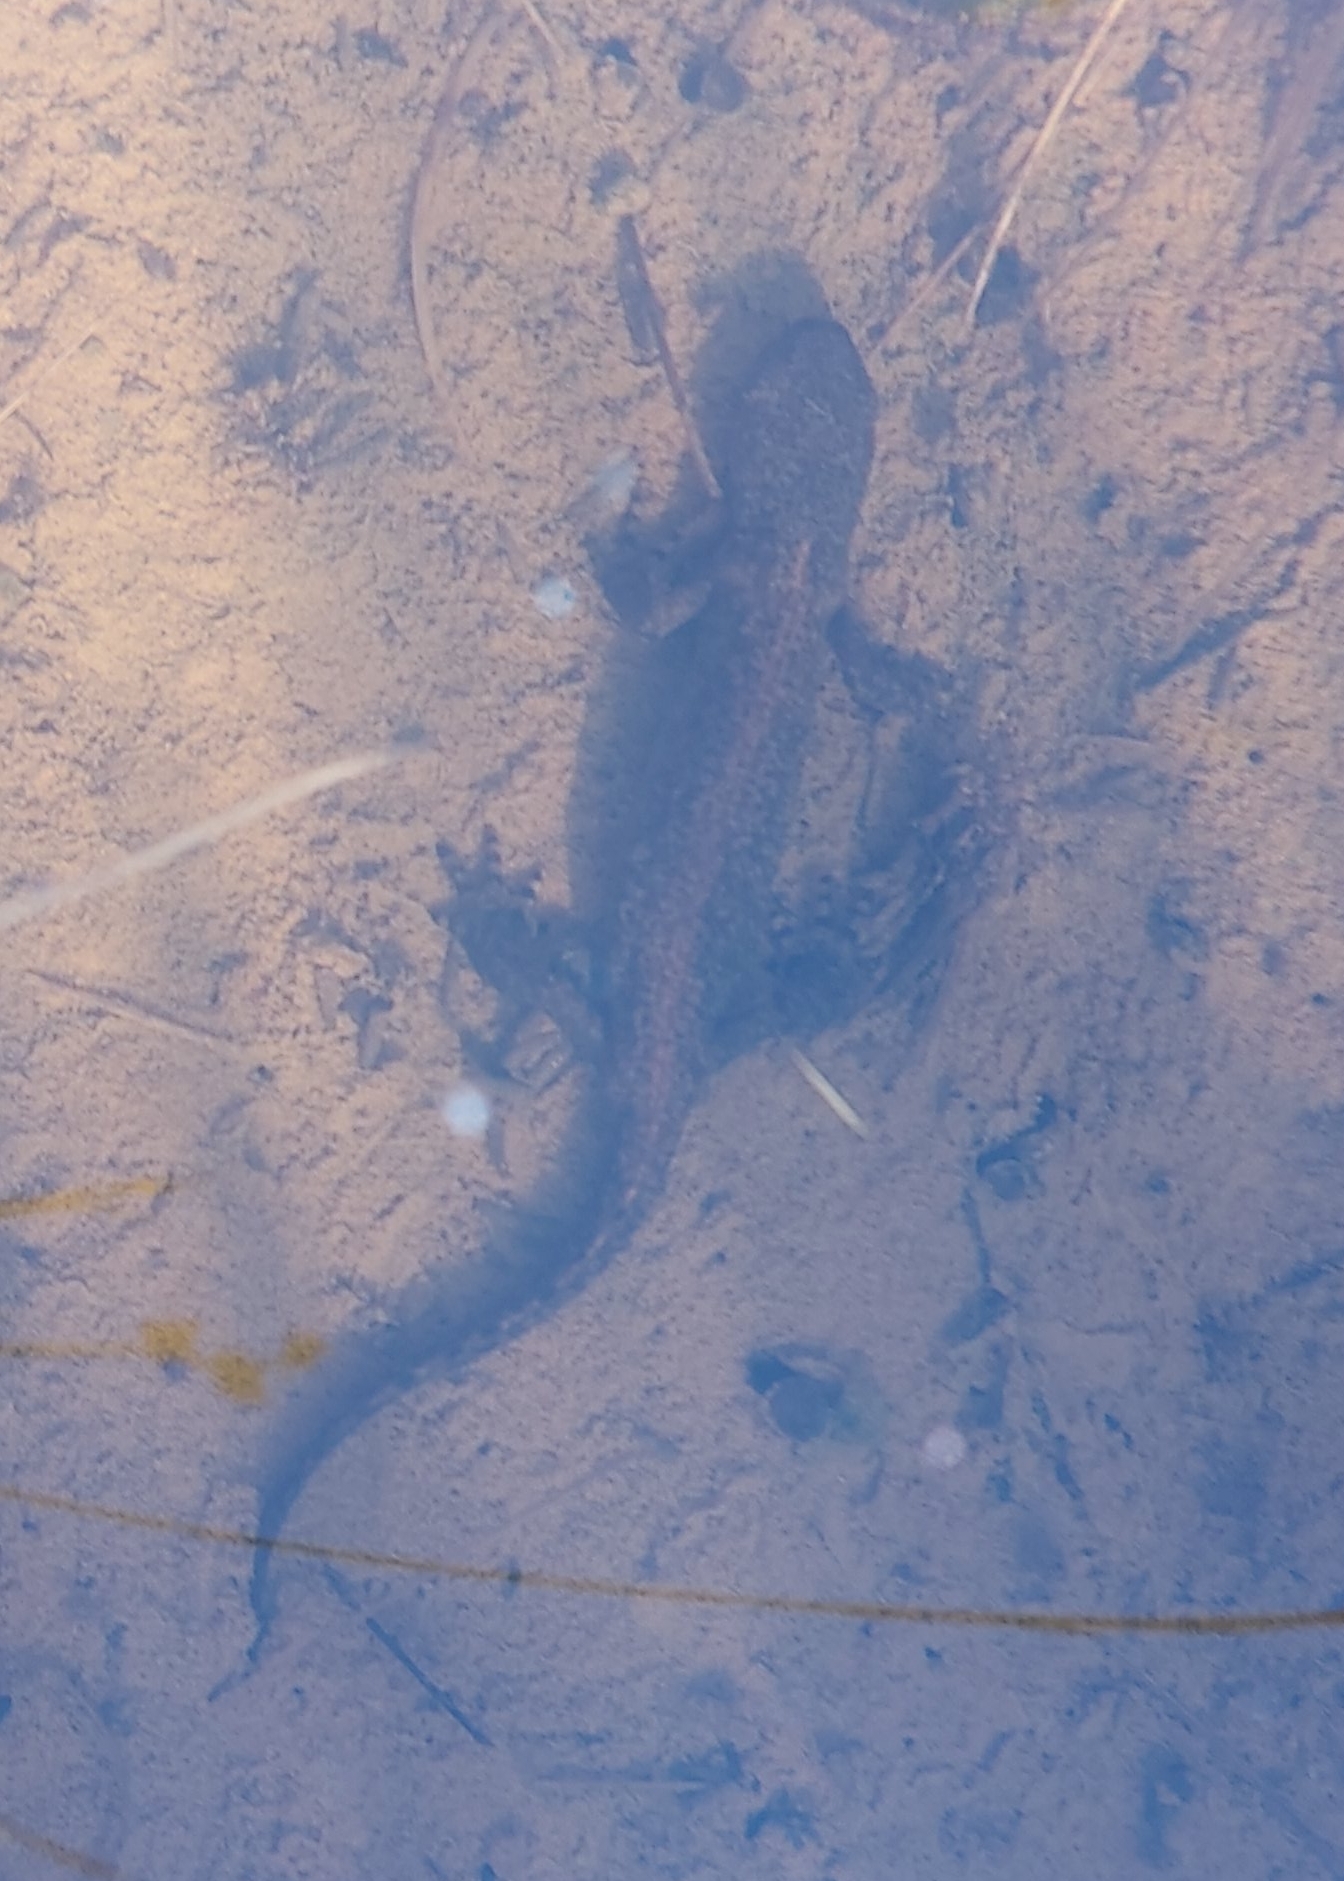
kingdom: Animalia
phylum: Chordata
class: Amphibia
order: Caudata
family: Salamandridae
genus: Ichthyosaura
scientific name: Ichthyosaura alpestris
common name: Alpine newt
